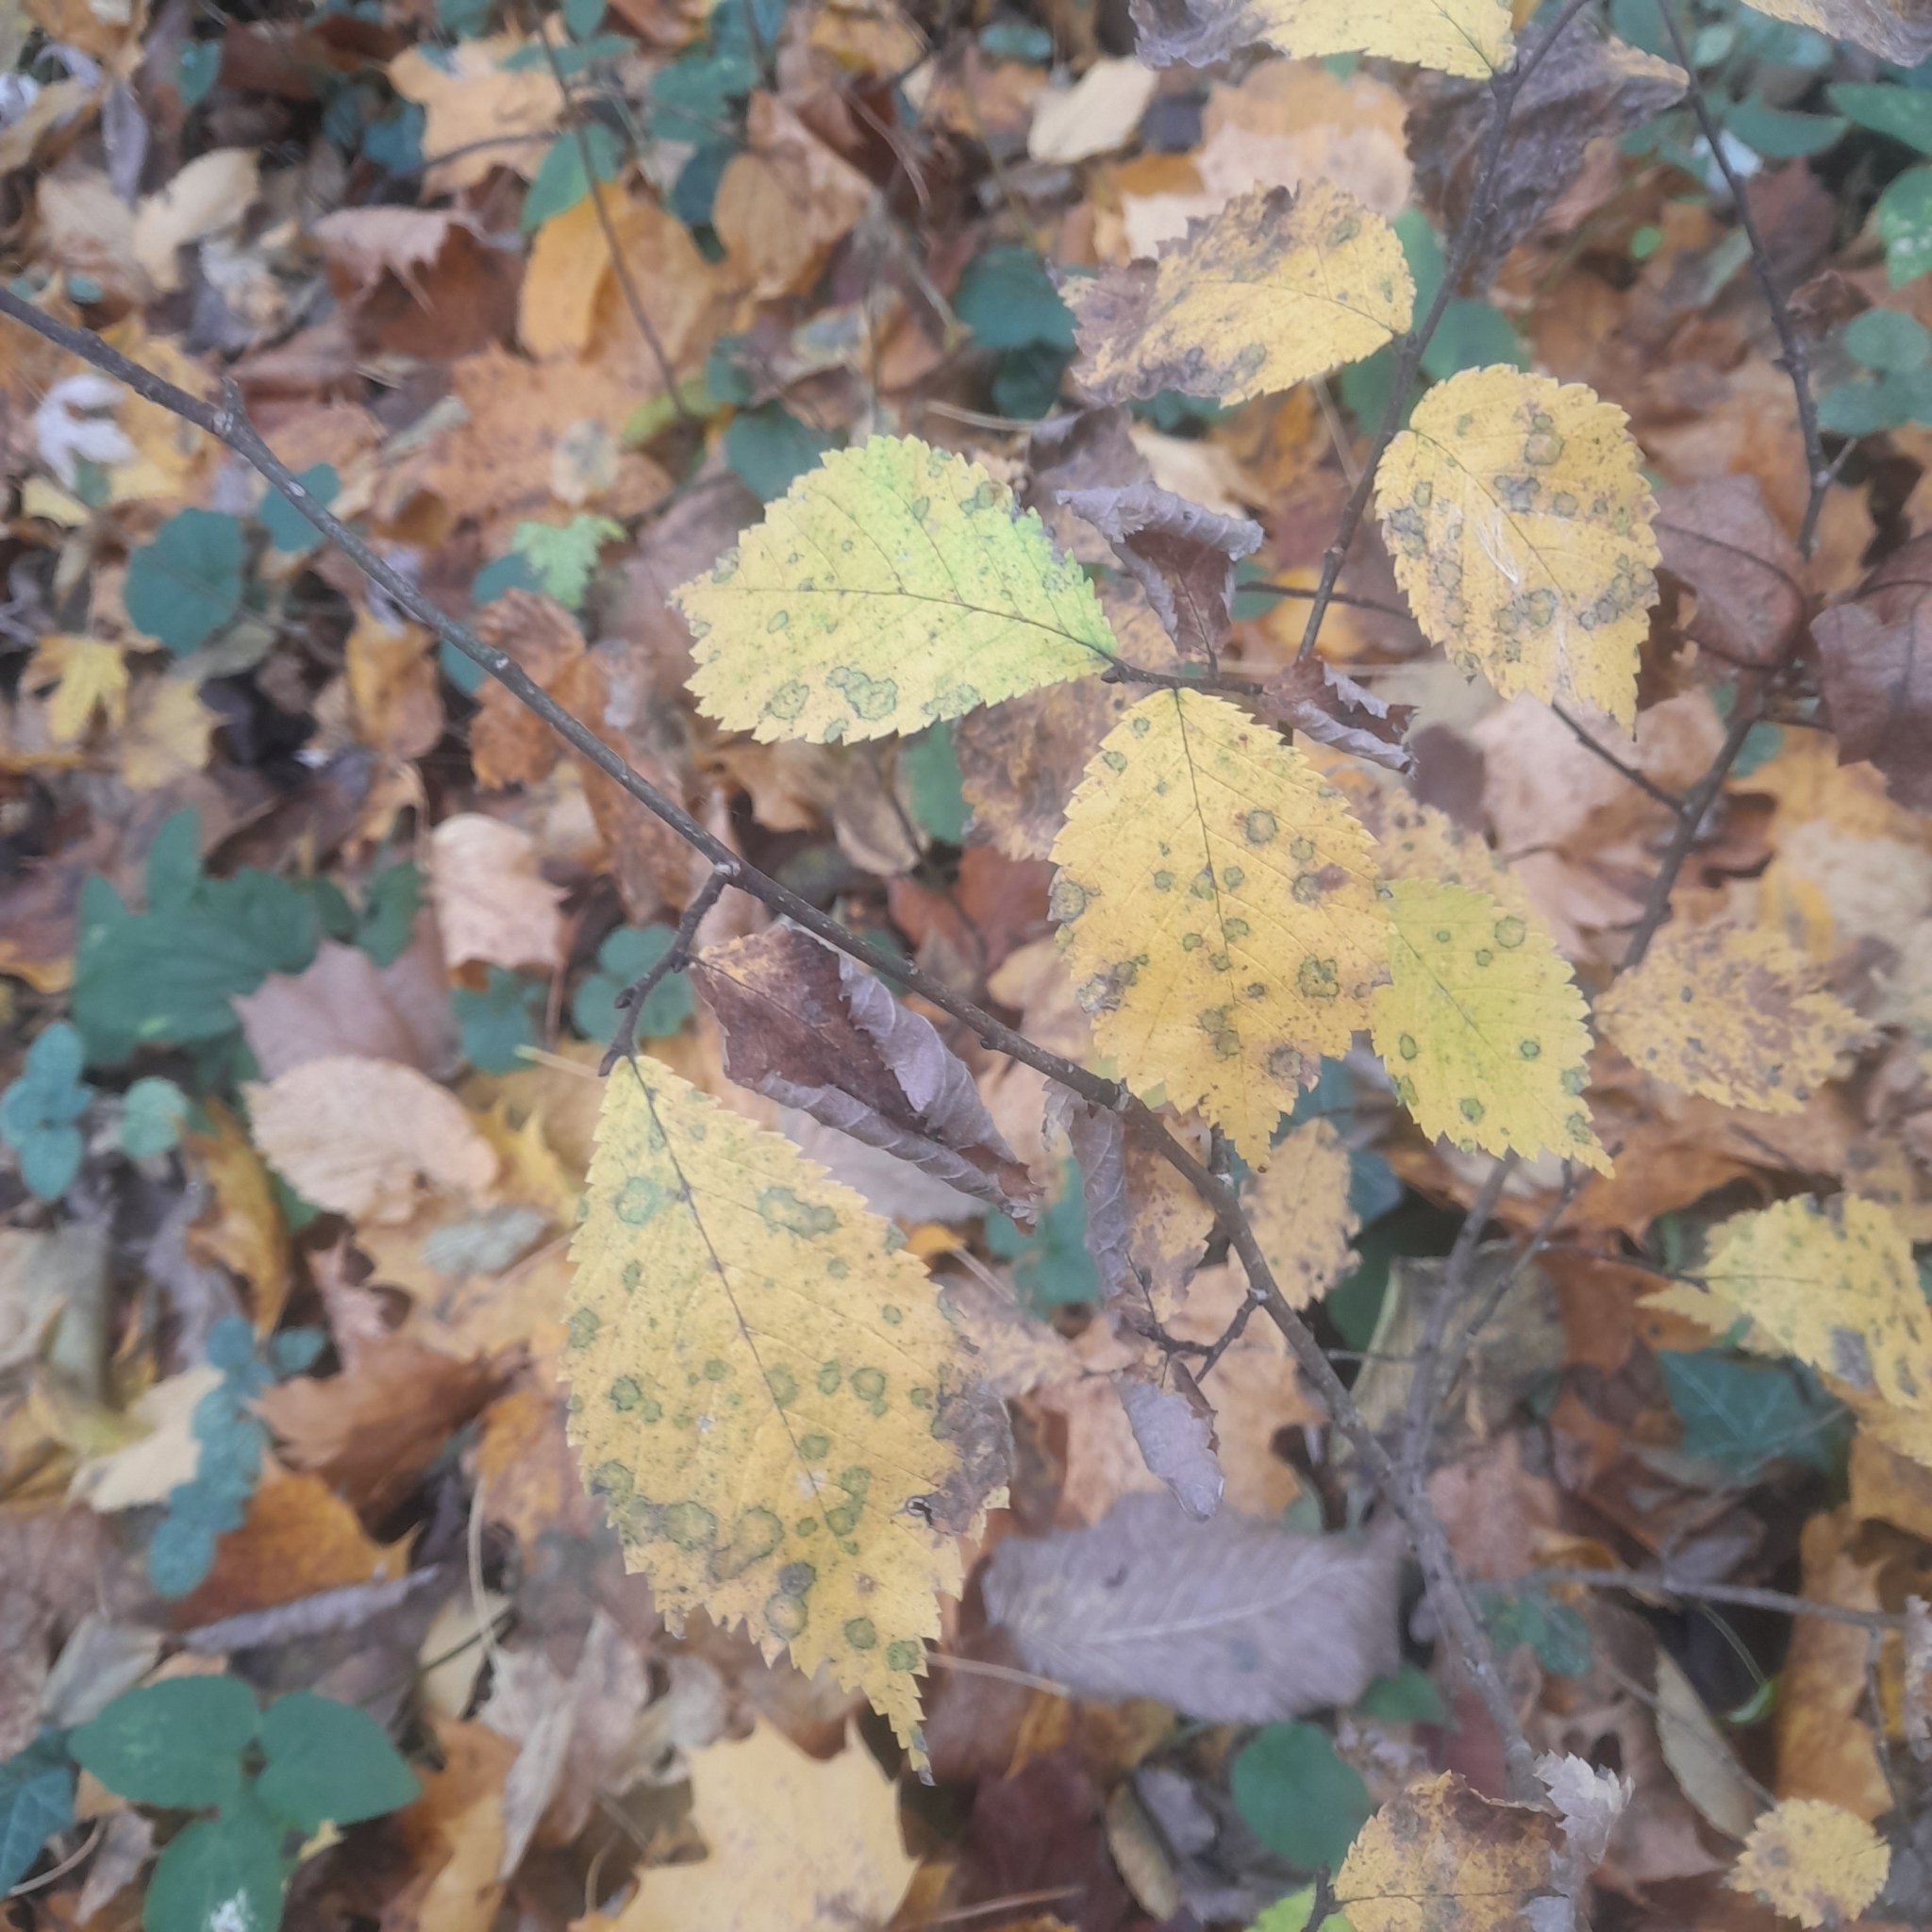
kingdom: Plantae
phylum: Tracheophyta
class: Magnoliopsida
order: Rosales
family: Ulmaceae
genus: Ulmus
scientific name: Ulmus laevis
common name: European white-elm
